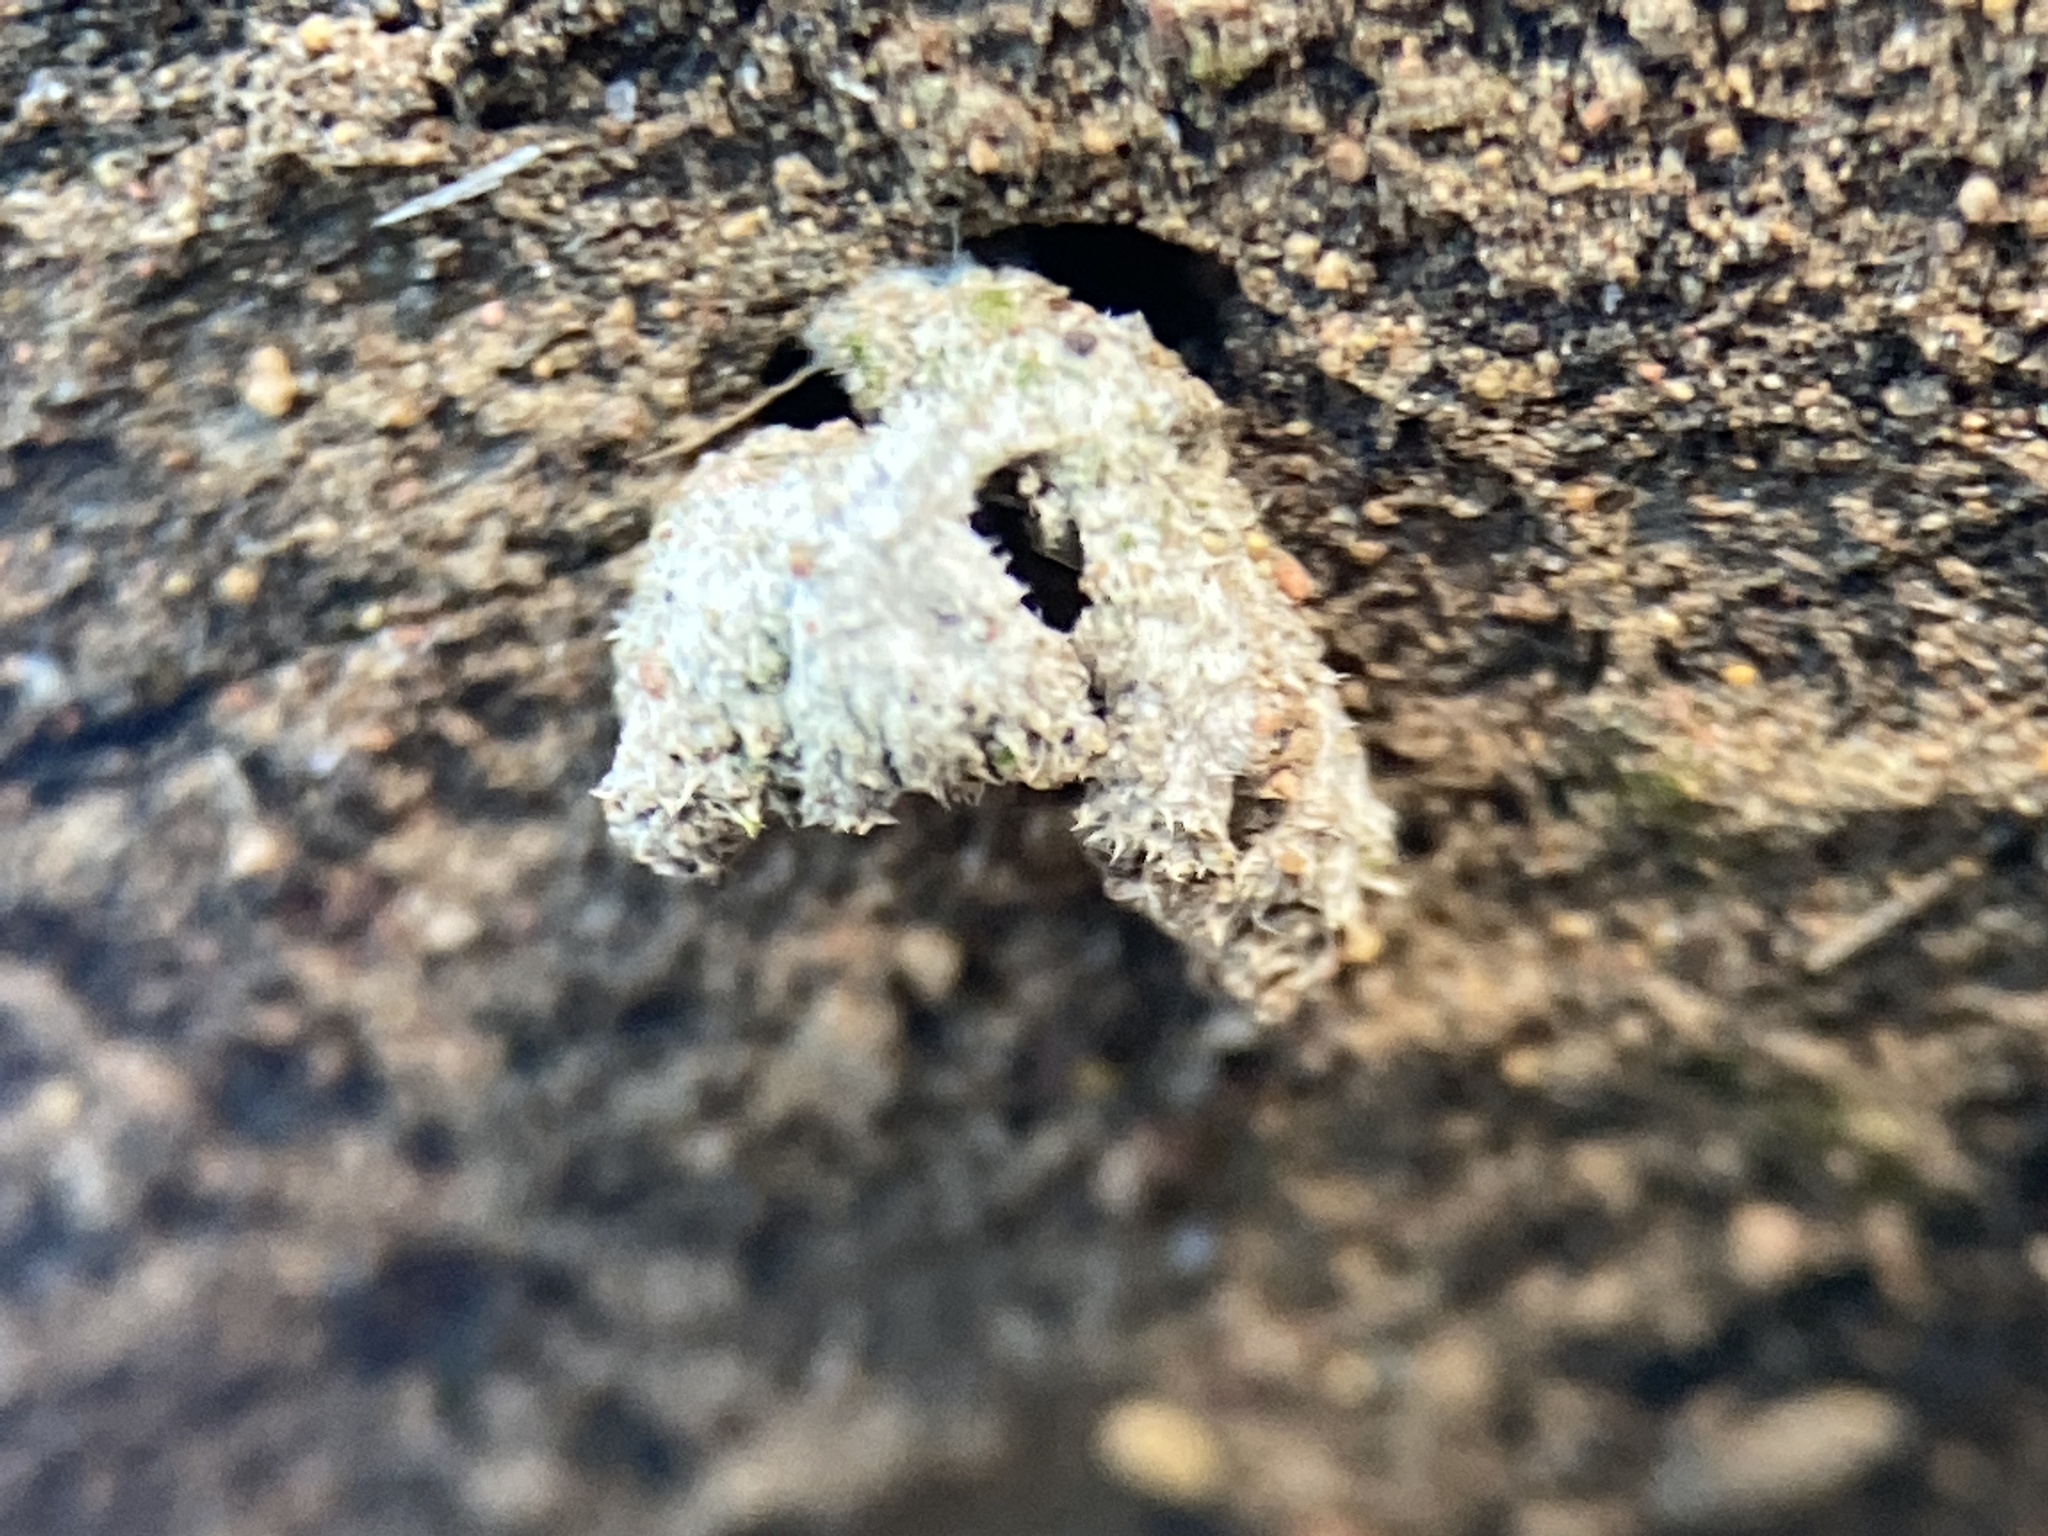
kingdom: Fungi
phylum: Basidiomycota
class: Agaricomycetes
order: Agaricales
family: Schizophyllaceae
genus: Schizophyllum
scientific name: Schizophyllum commune
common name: Common porecrust
